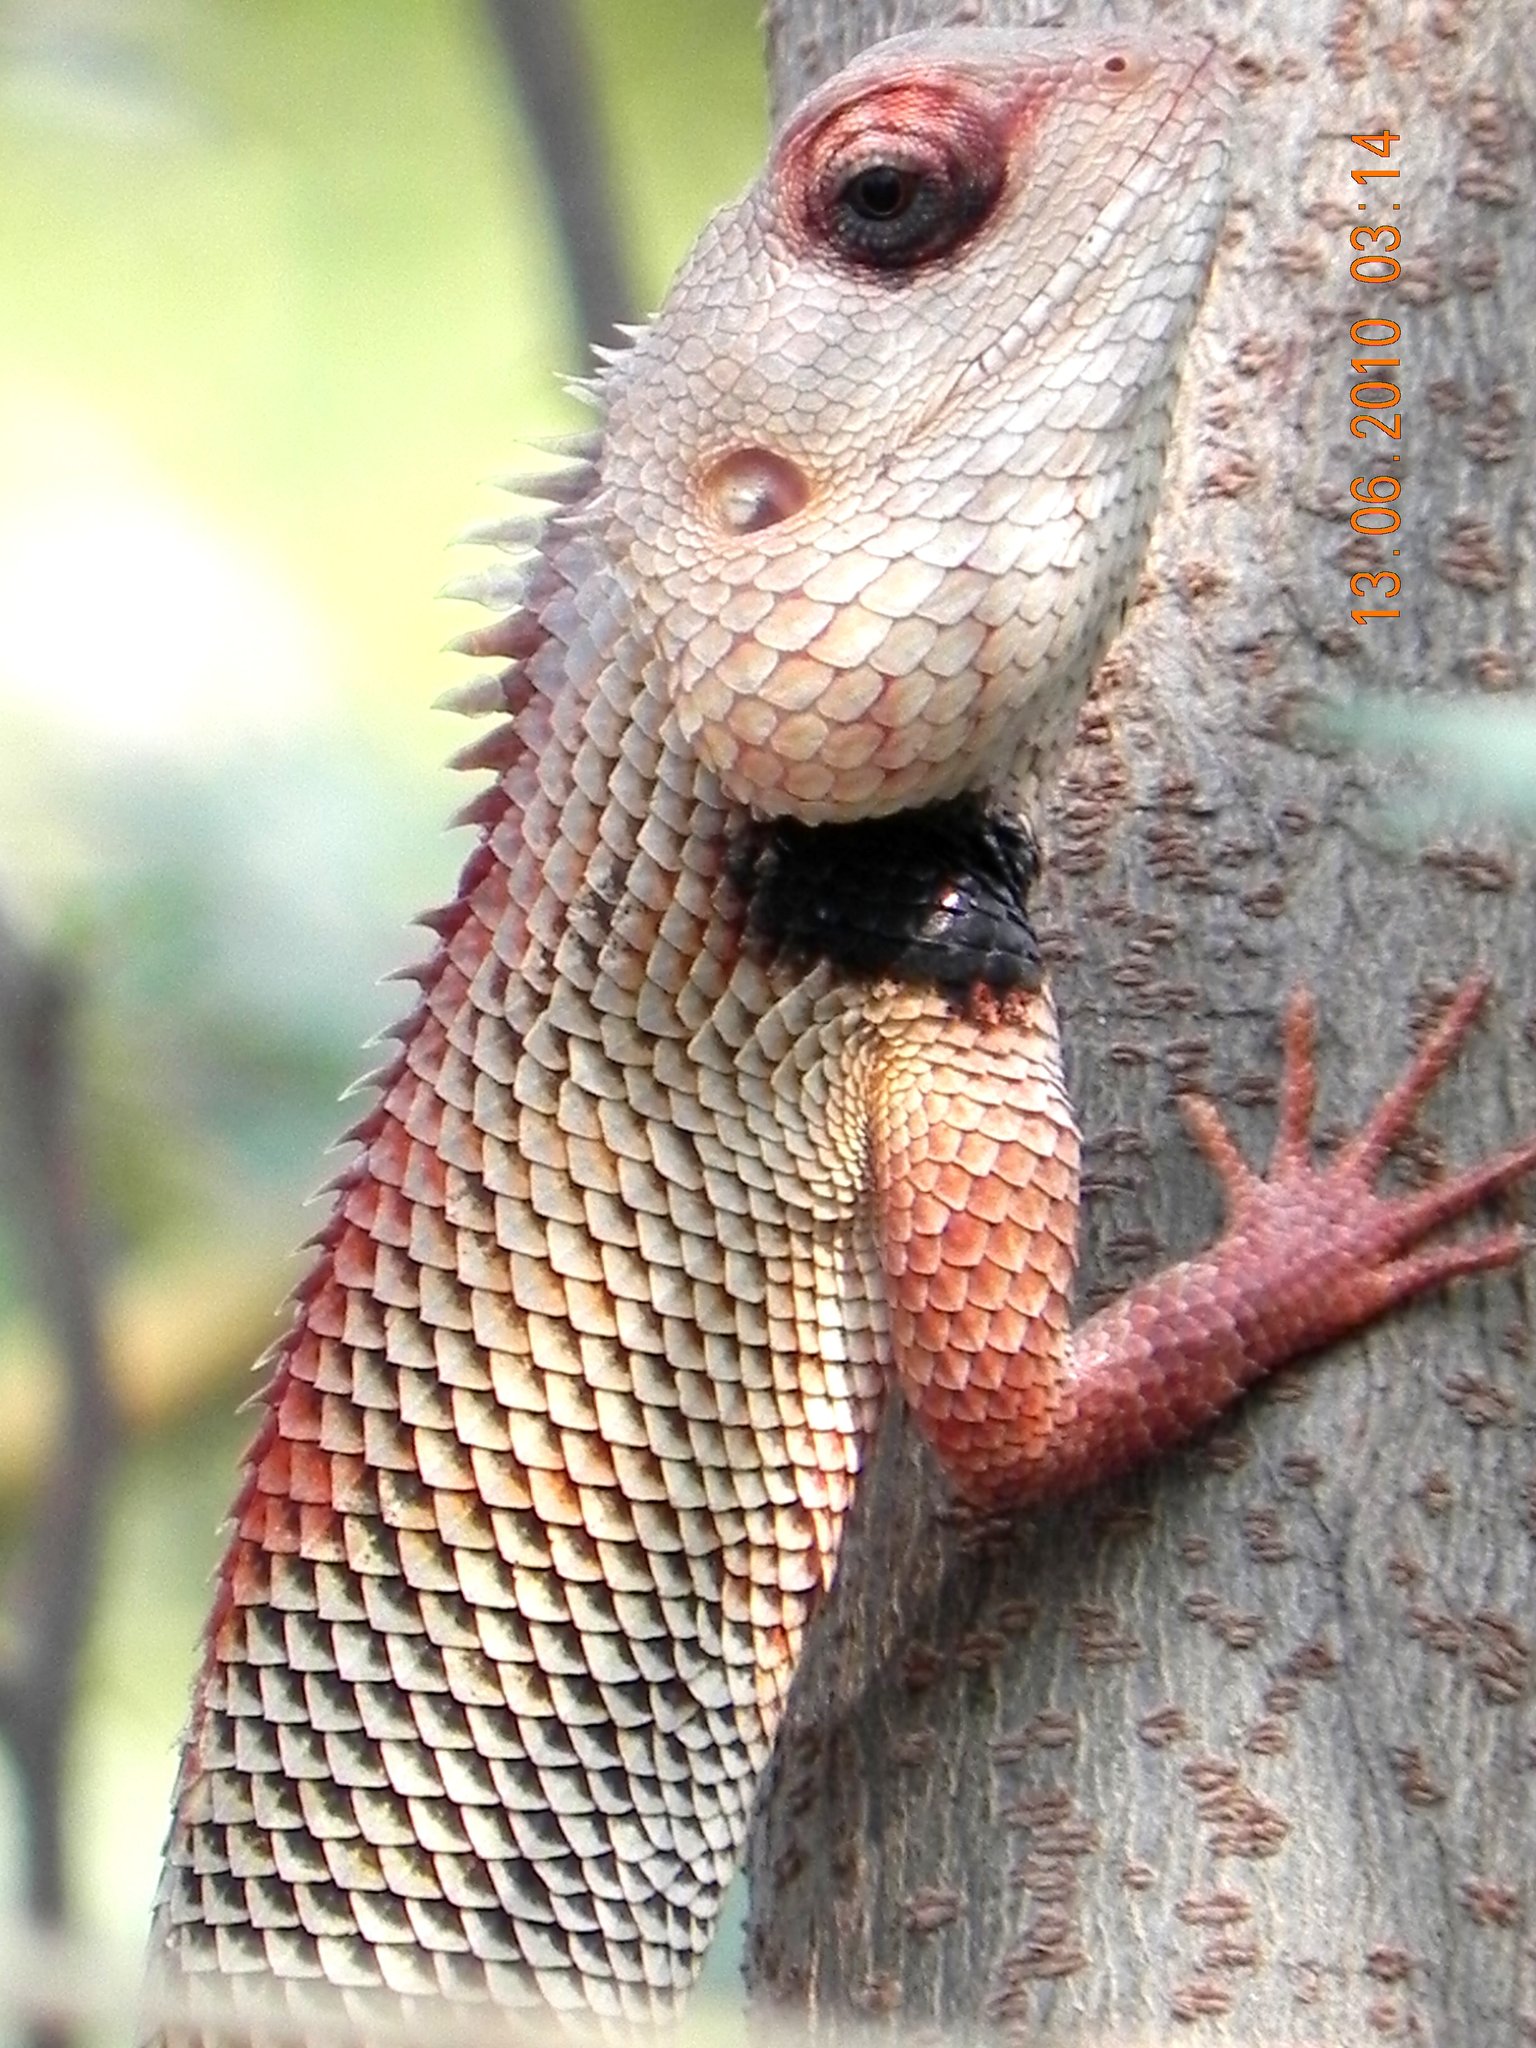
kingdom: Animalia
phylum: Chordata
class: Squamata
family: Agamidae
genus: Calotes
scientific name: Calotes versicolor
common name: Oriental garden lizard
